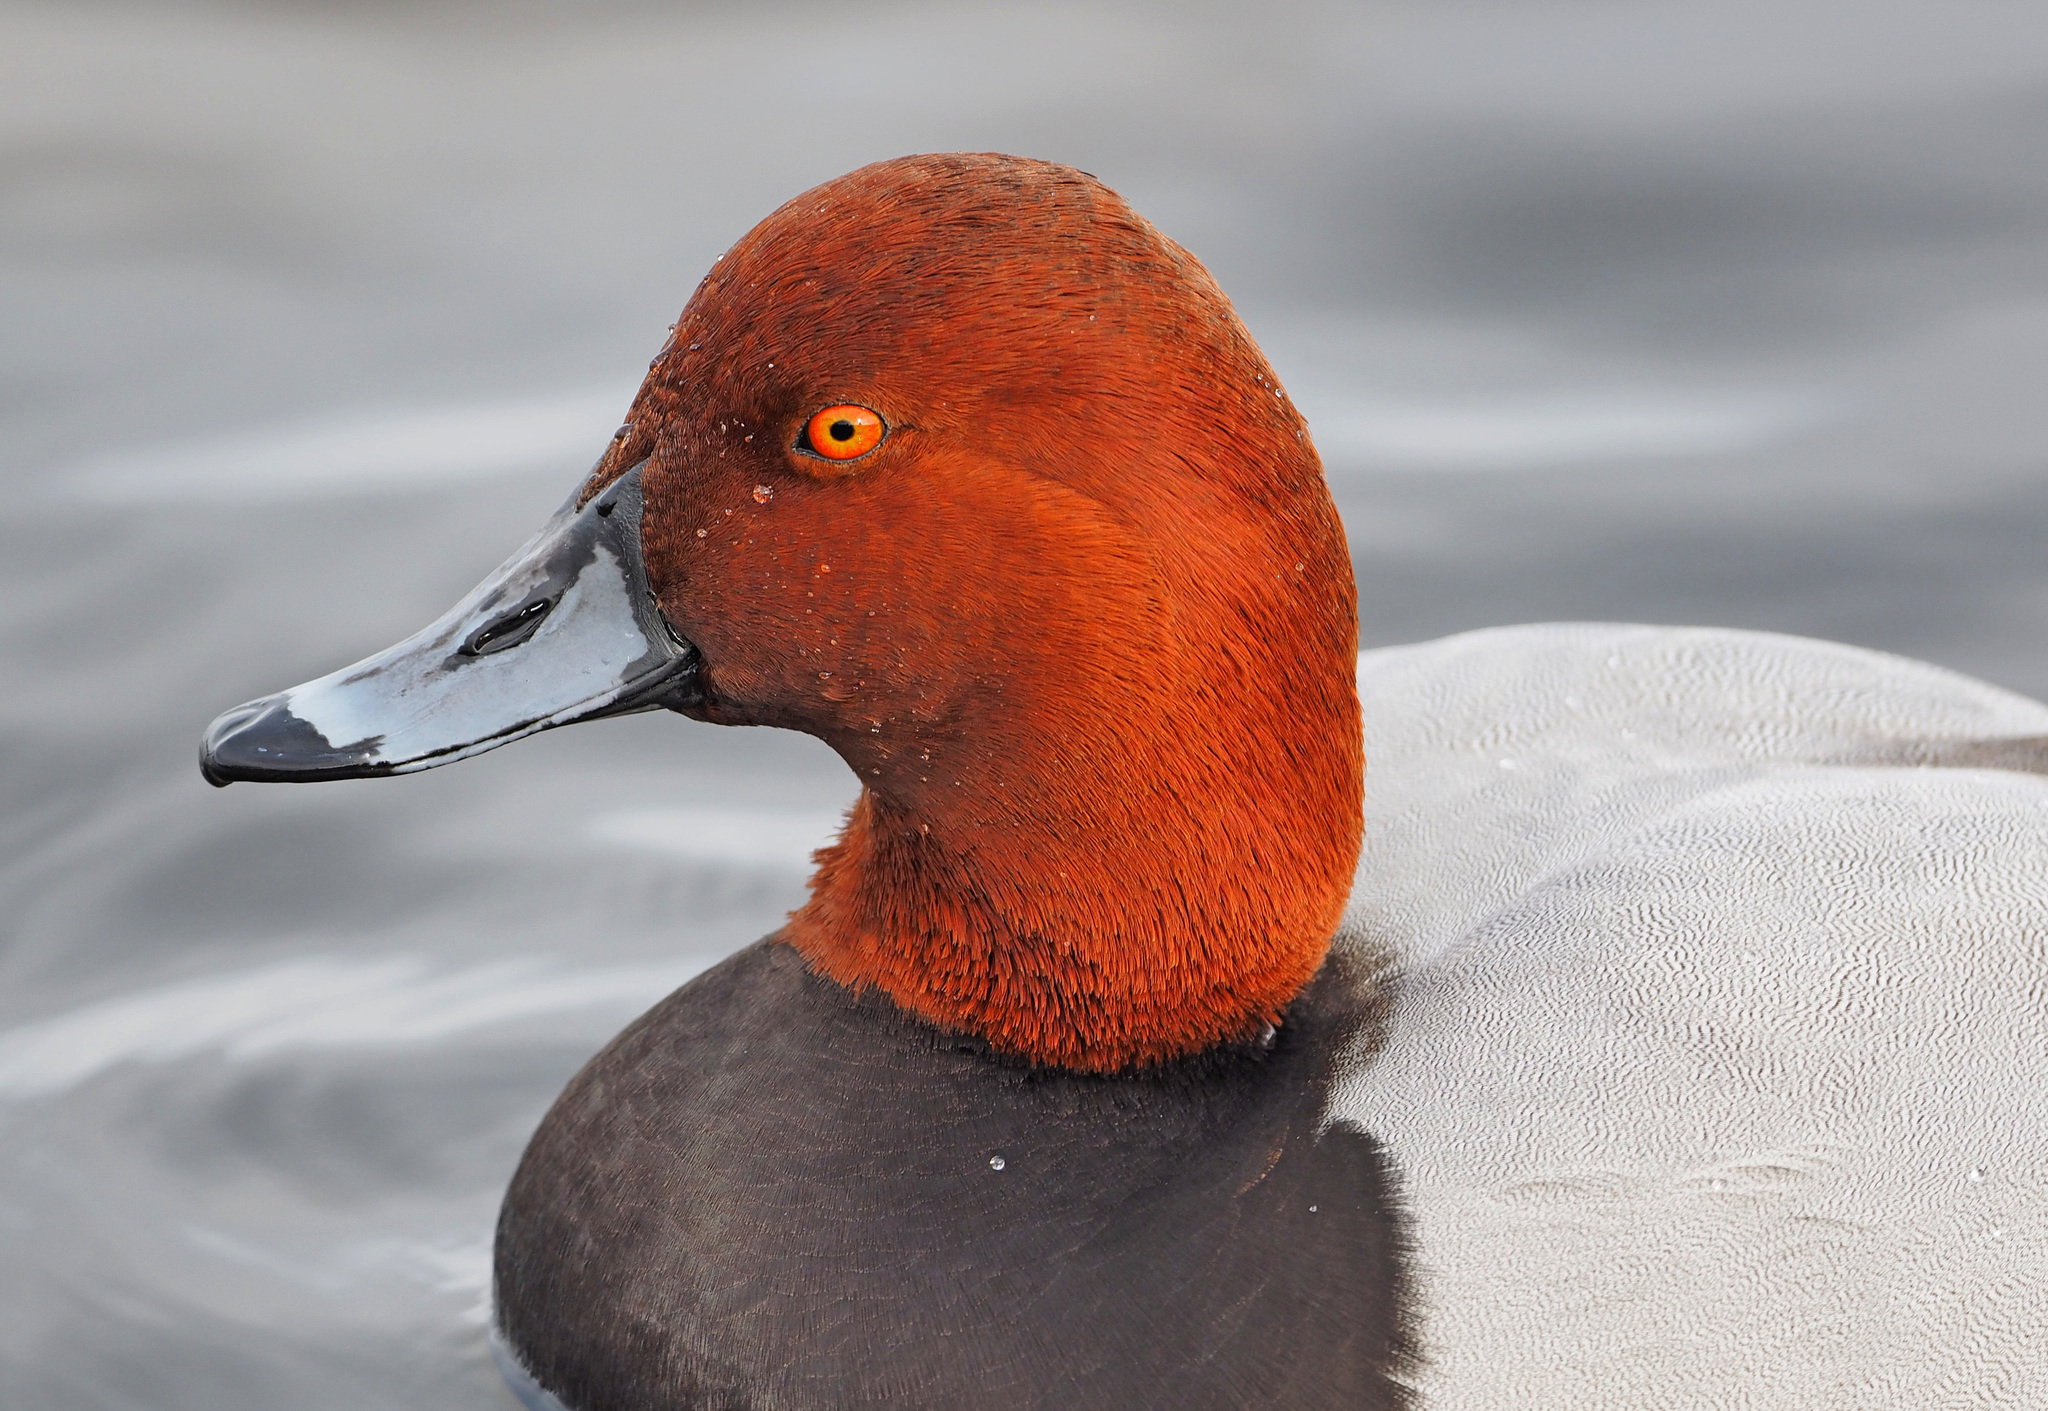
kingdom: Animalia
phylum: Chordata
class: Aves
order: Anseriformes
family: Anatidae
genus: Aythya
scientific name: Aythya
